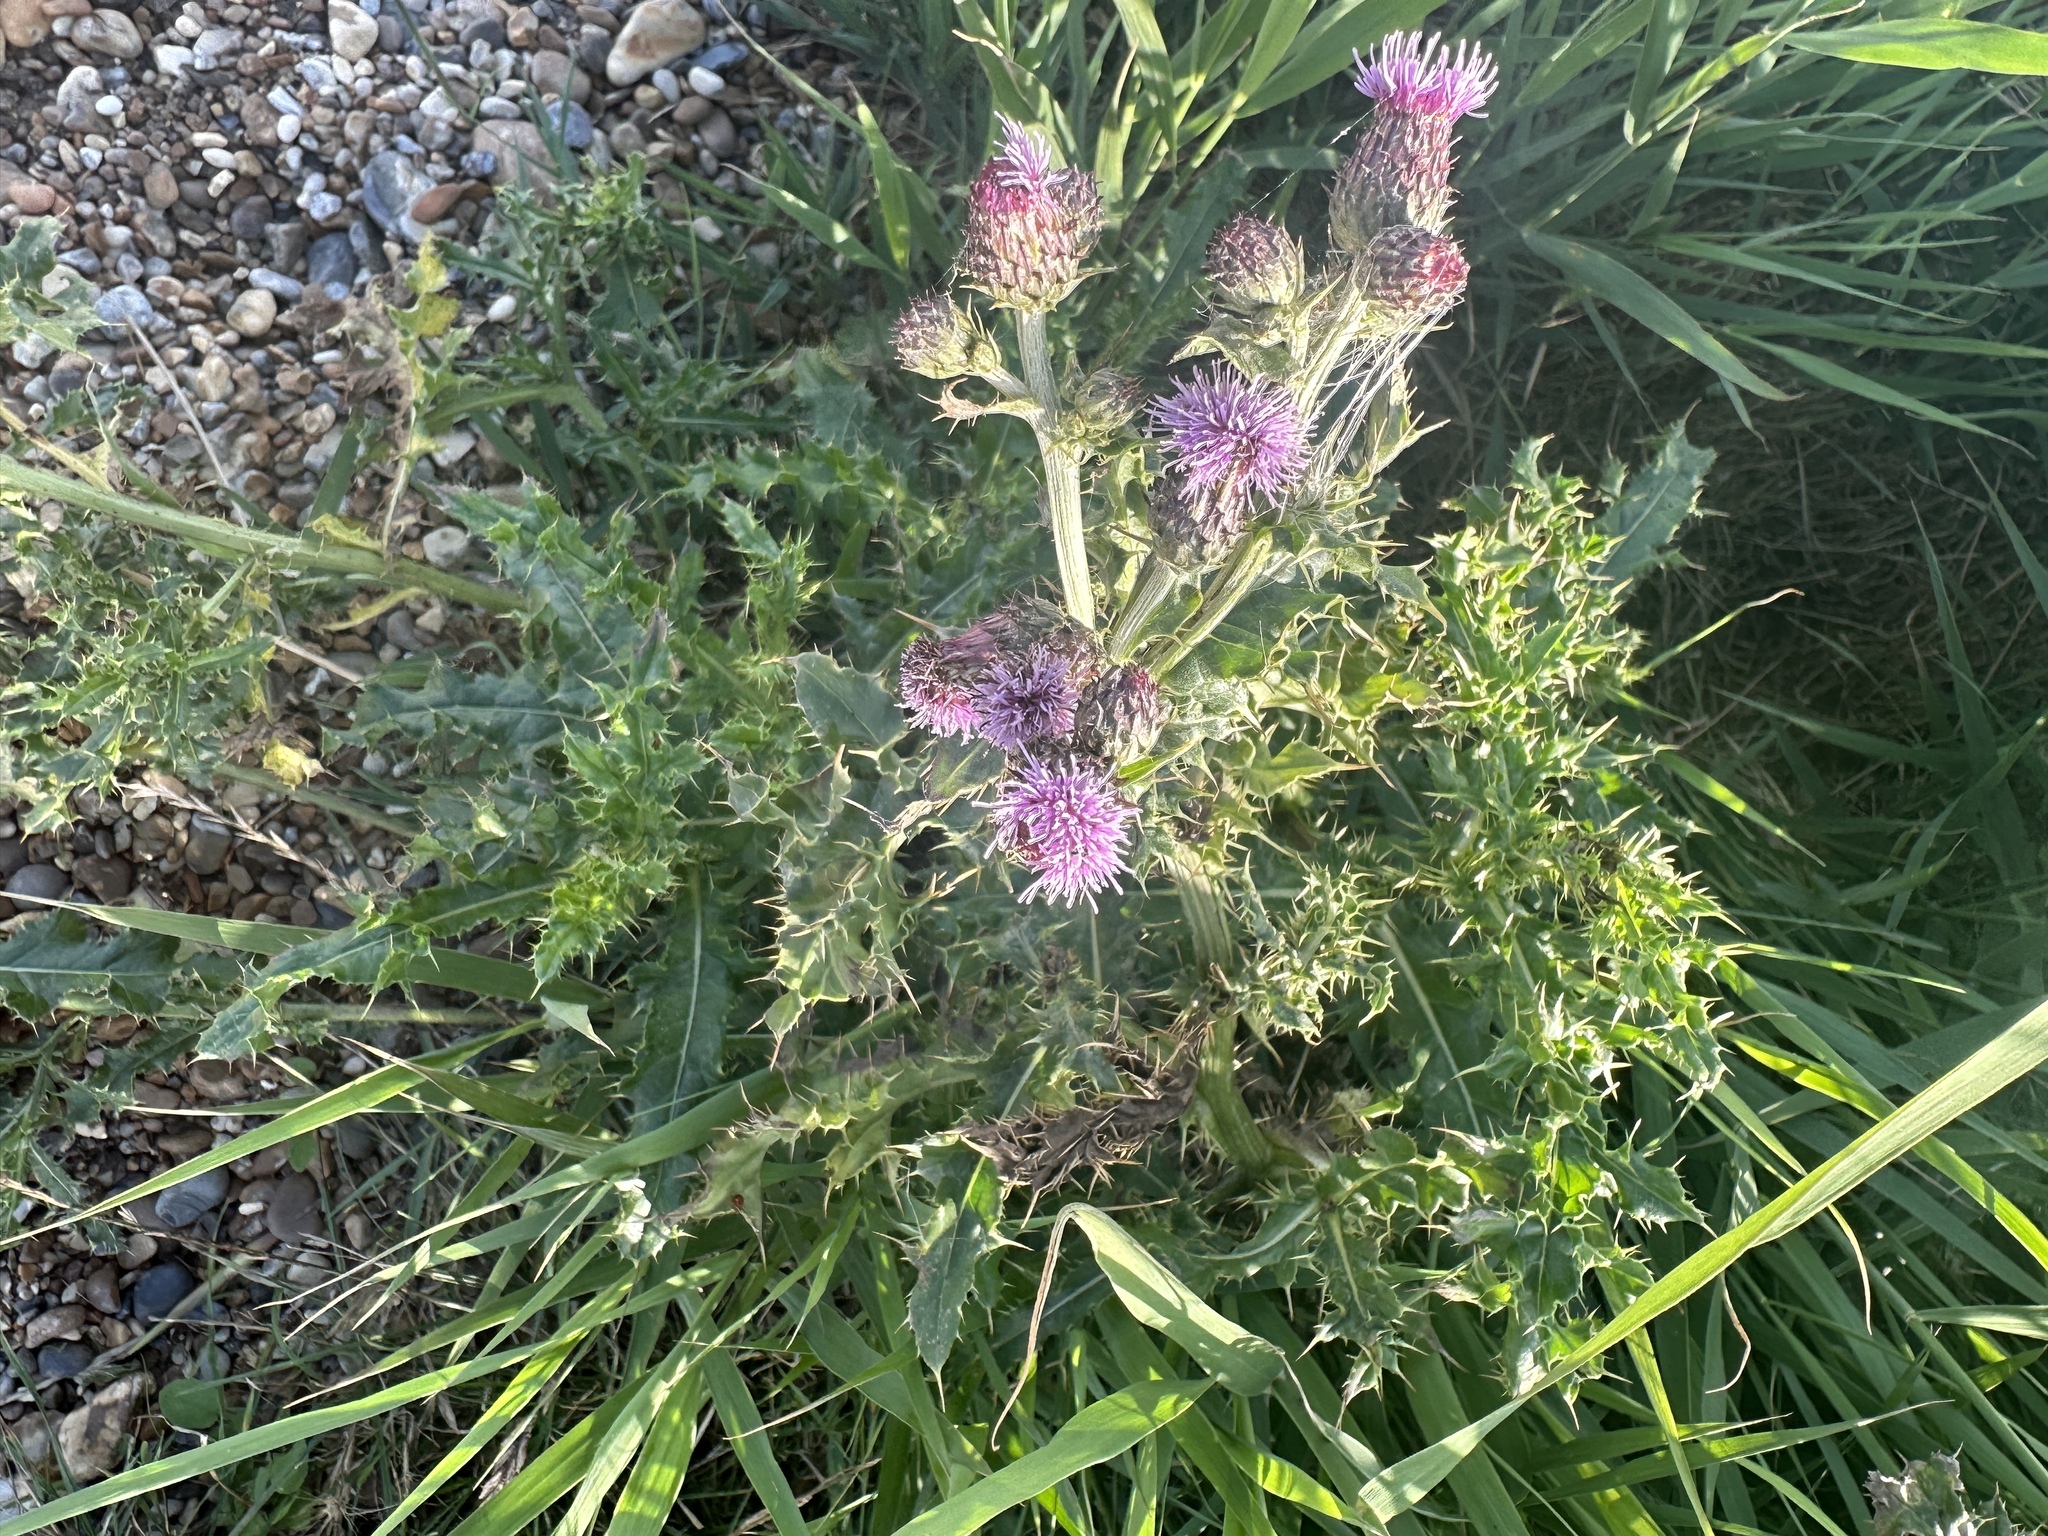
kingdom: Plantae
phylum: Tracheophyta
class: Magnoliopsida
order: Asterales
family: Asteraceae
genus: Cirsium
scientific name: Cirsium arvense
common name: Creeping thistle
